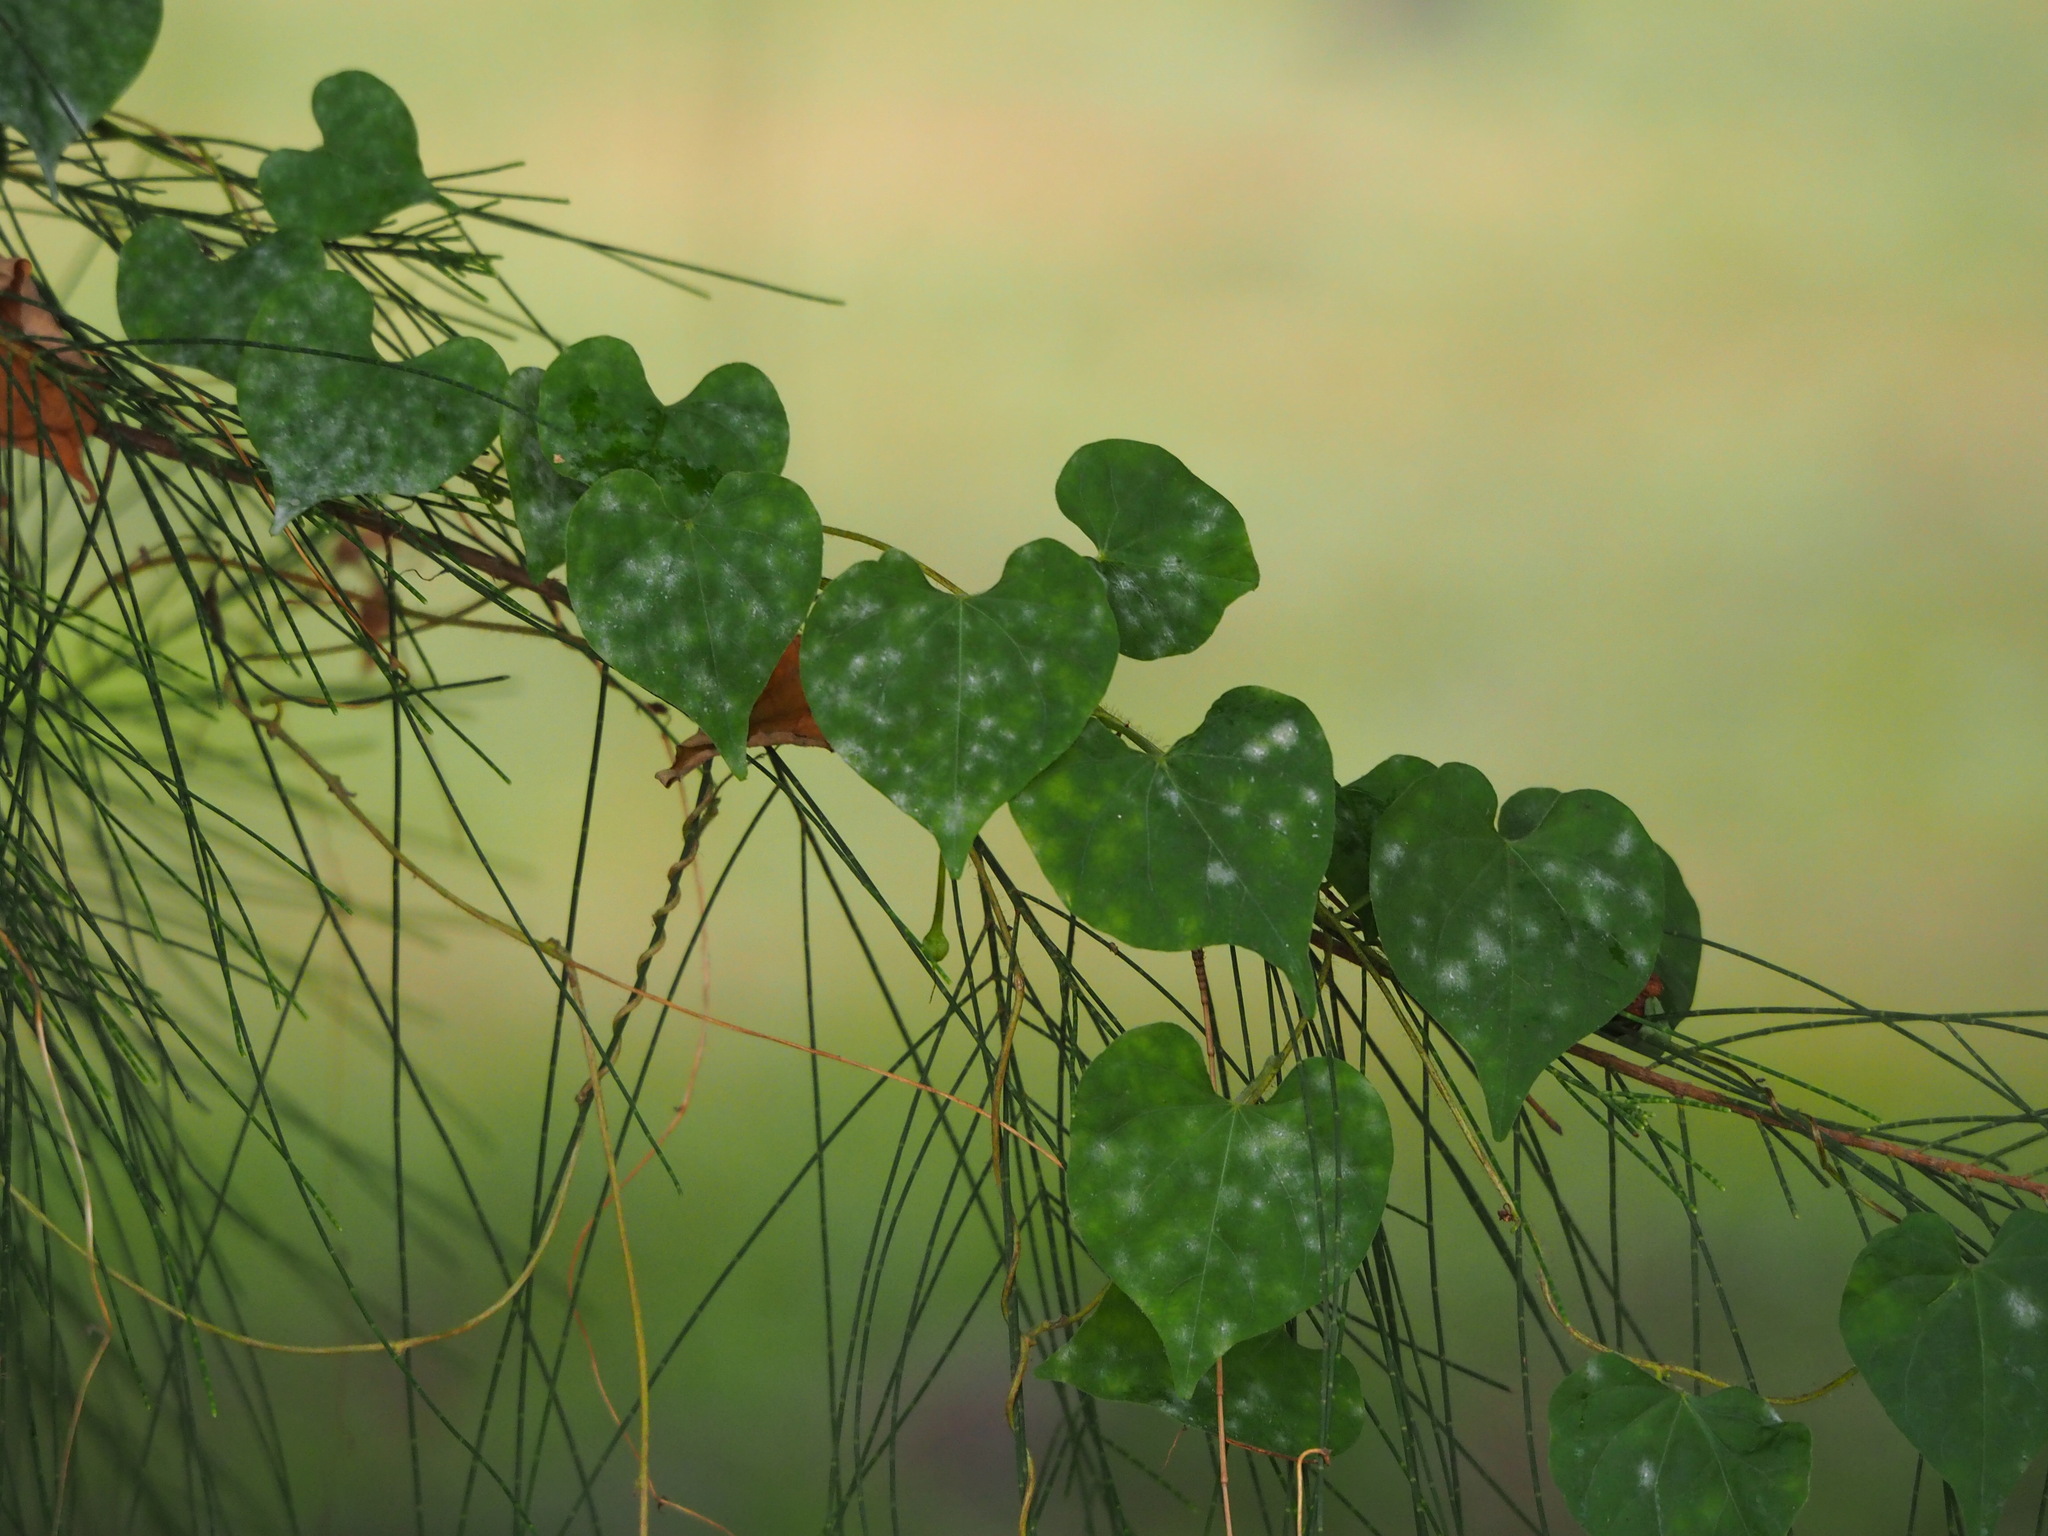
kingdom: Plantae
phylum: Tracheophyta
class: Magnoliopsida
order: Solanales
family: Convolvulaceae
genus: Ipomoea
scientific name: Ipomoea obscura
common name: Obscure morning-glory
